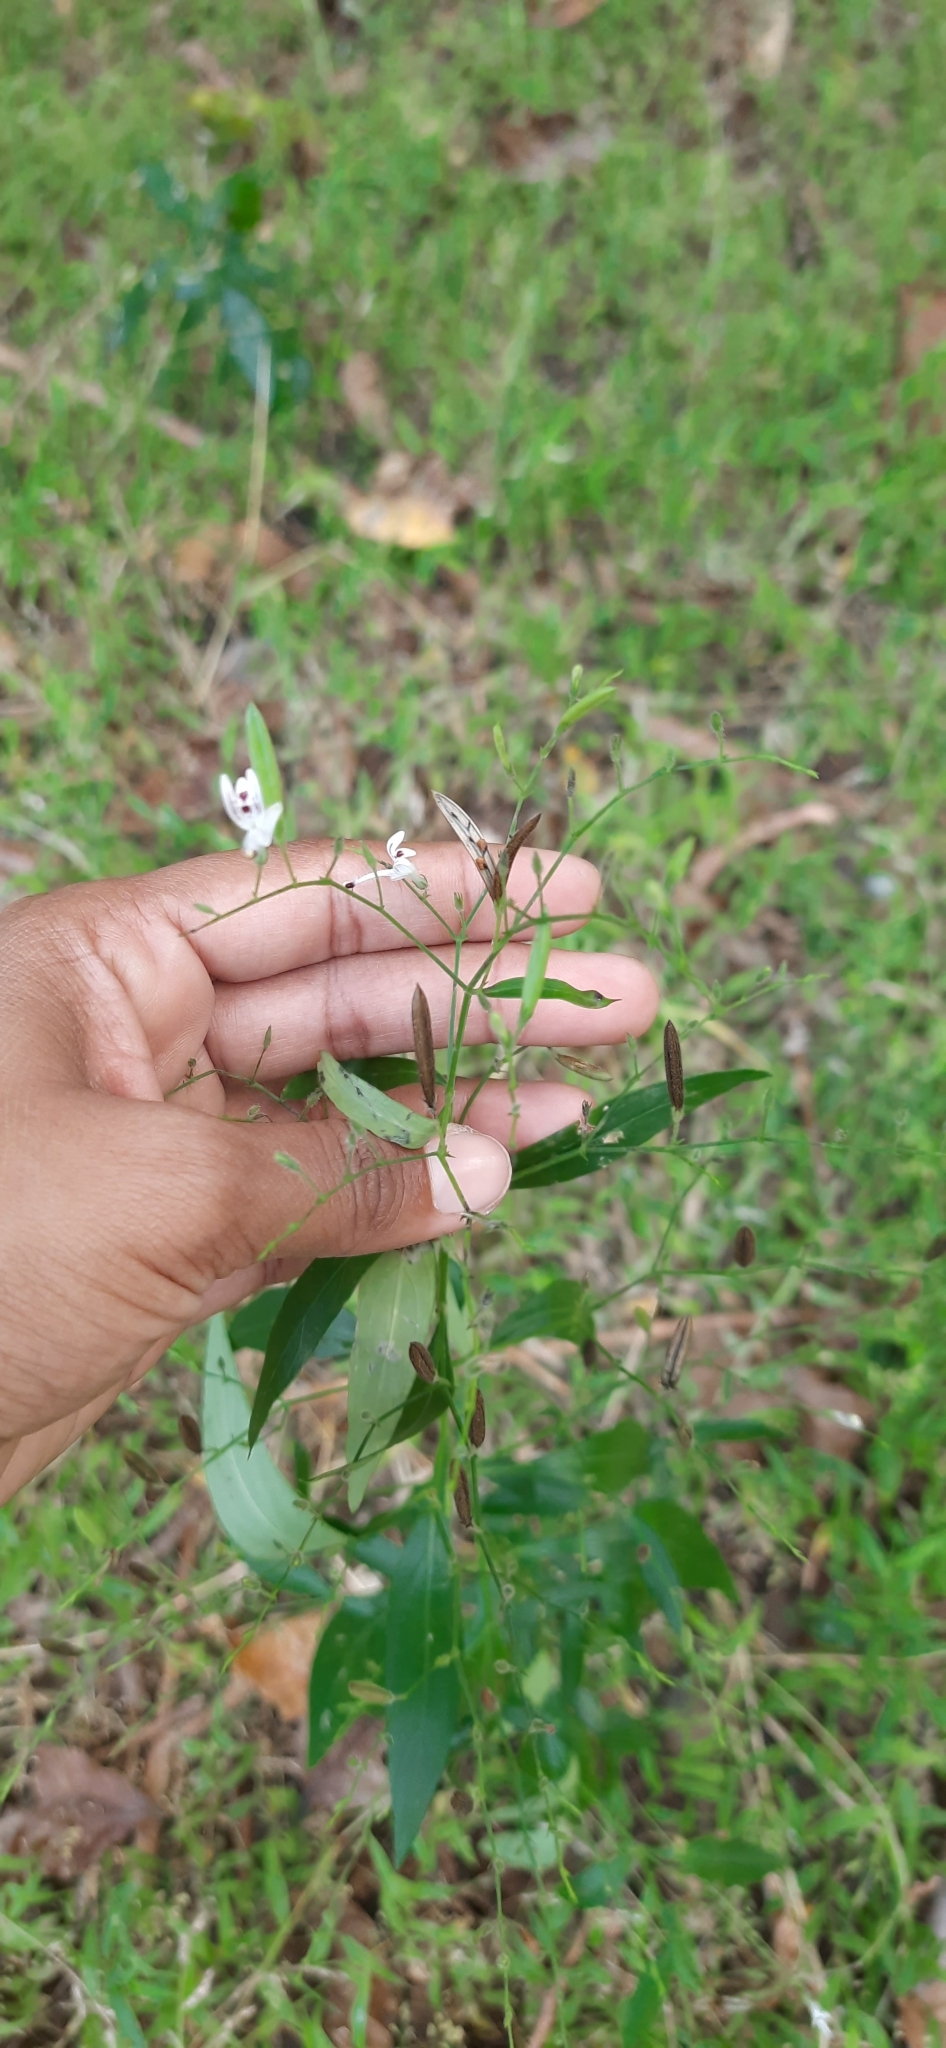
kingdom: Plantae
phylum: Tracheophyta
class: Magnoliopsida
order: Lamiales
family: Acanthaceae
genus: Andrographis
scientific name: Andrographis paniculata
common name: Green chireta
